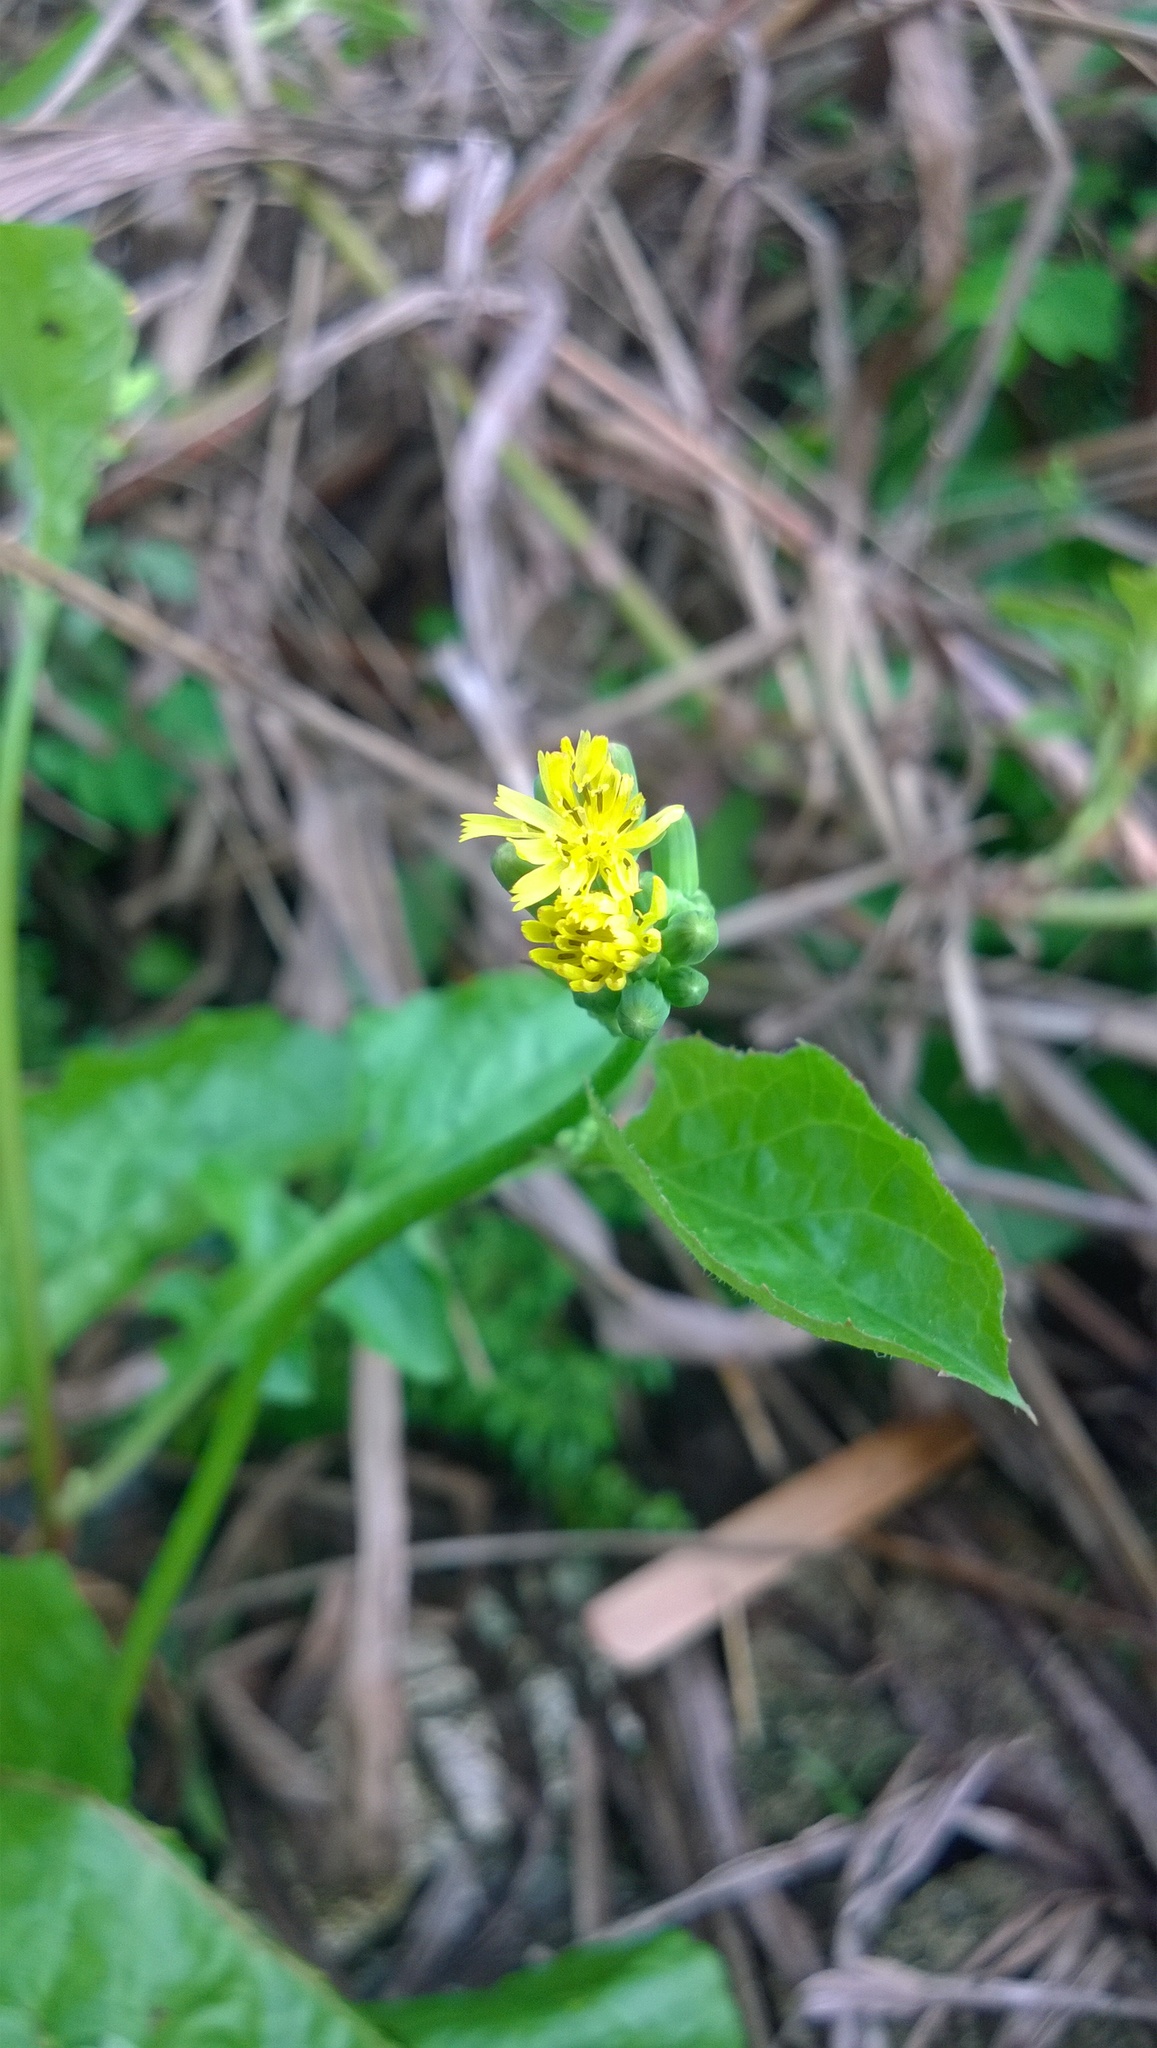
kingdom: Plantae
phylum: Tracheophyta
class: Magnoliopsida
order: Asterales
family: Asteraceae
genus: Youngia
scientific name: Youngia japonica
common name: Oriental false hawksbeard
